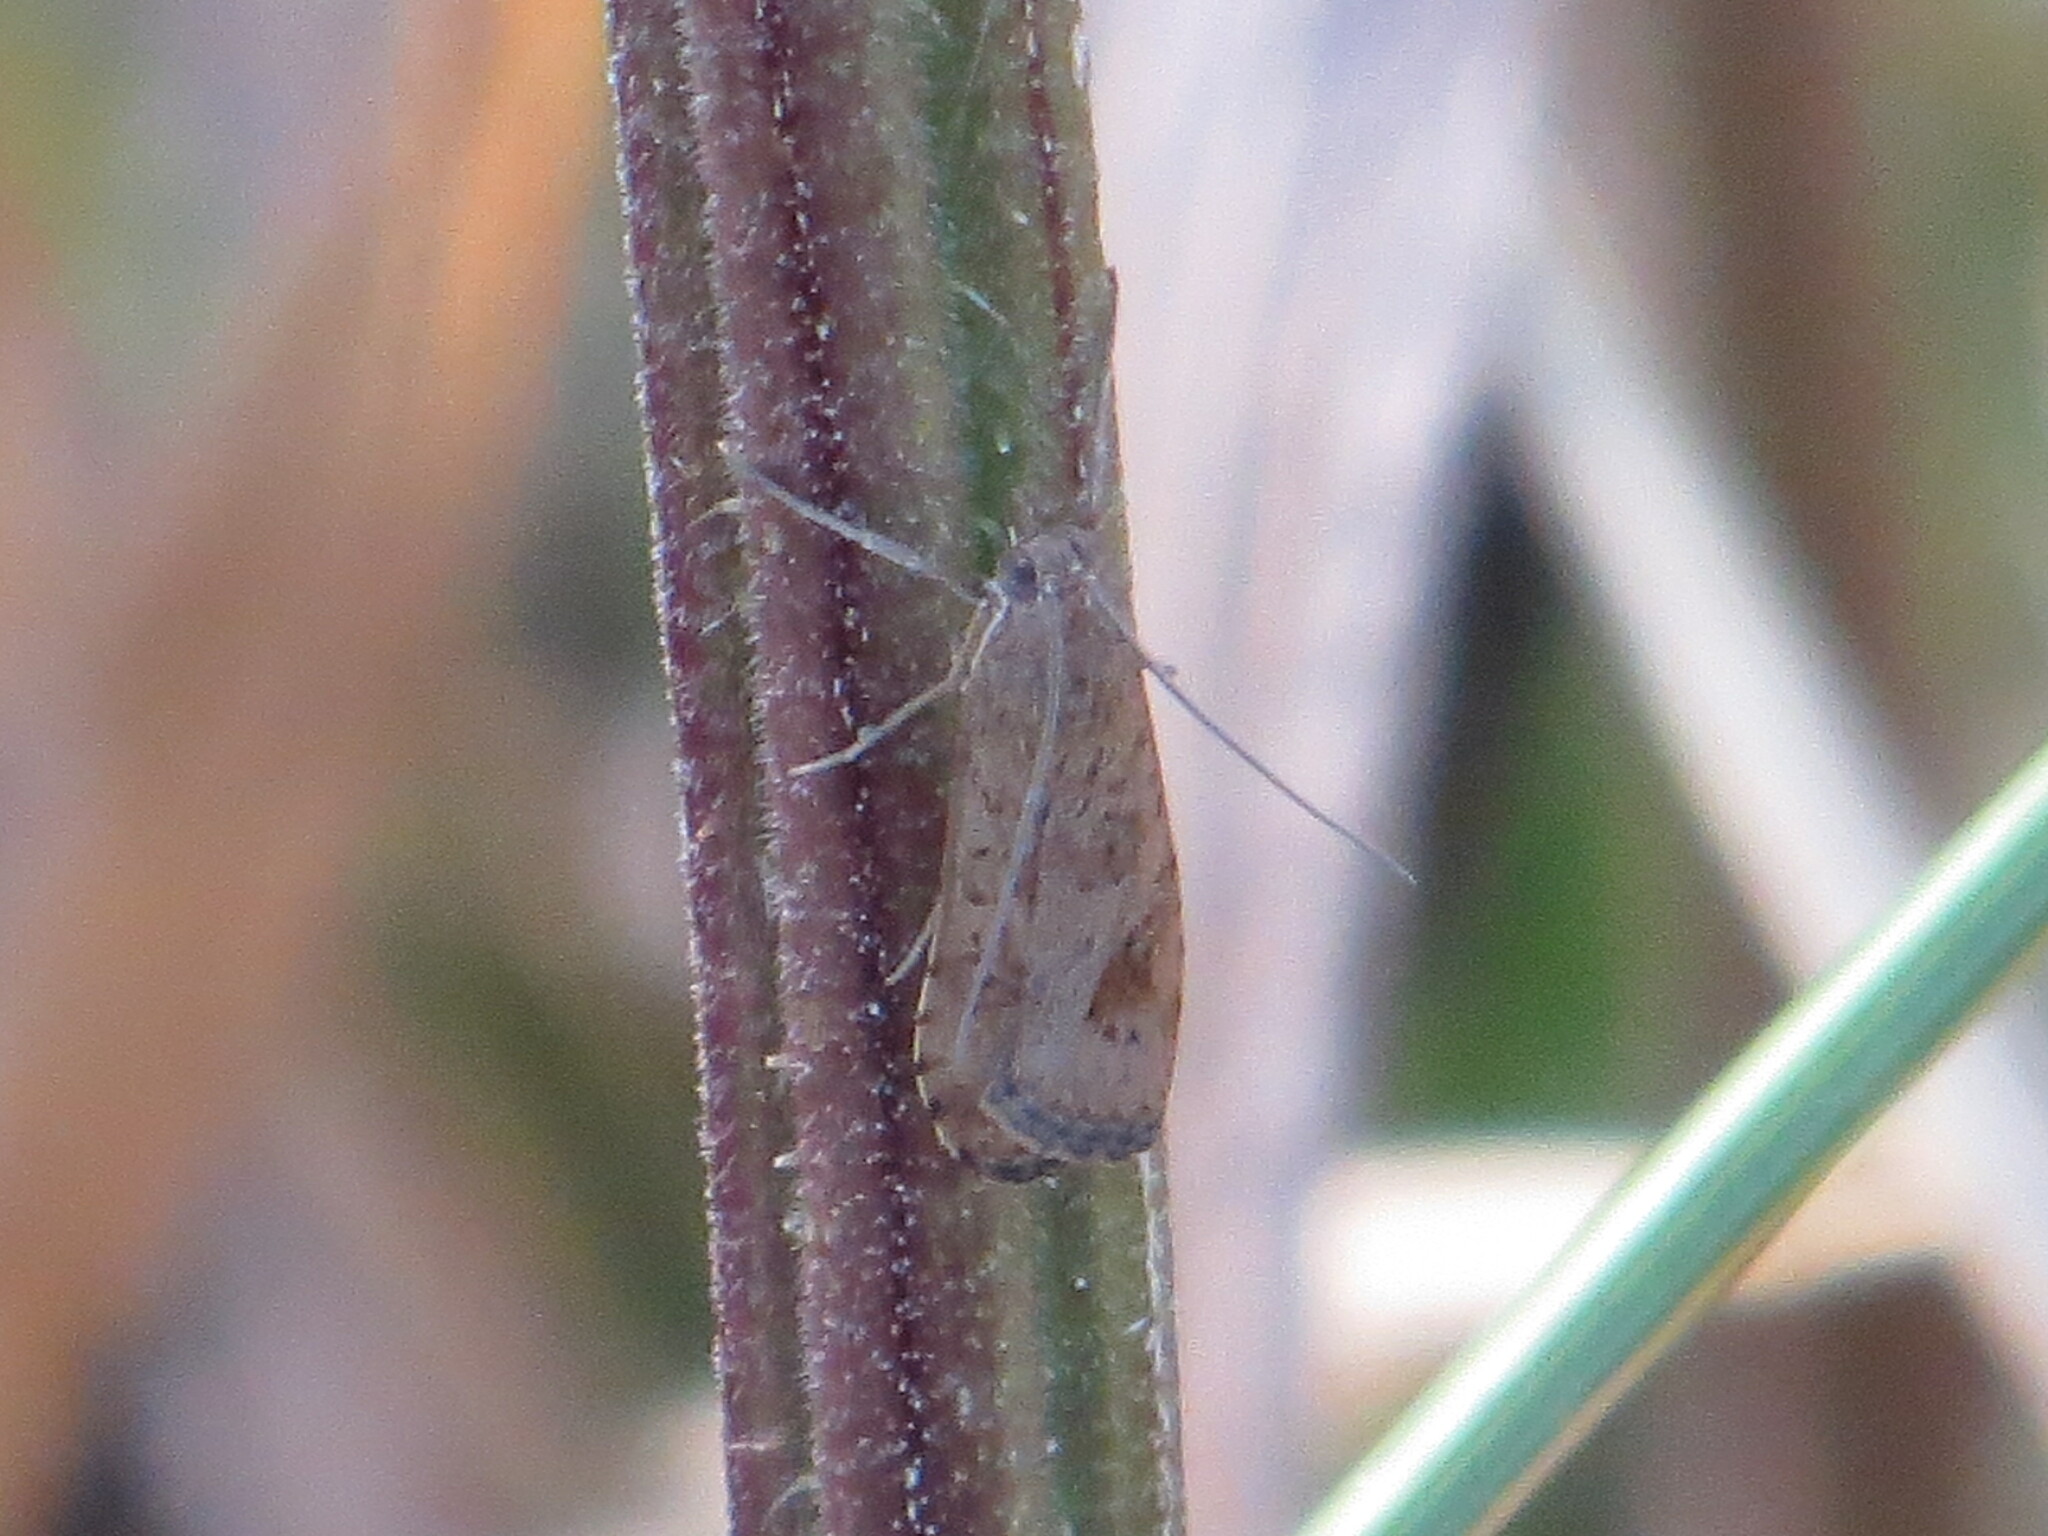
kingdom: Animalia
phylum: Arthropoda
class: Insecta
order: Lepidoptera
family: Crambidae
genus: Nomophila
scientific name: Nomophila noctuella
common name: Rush veneer
